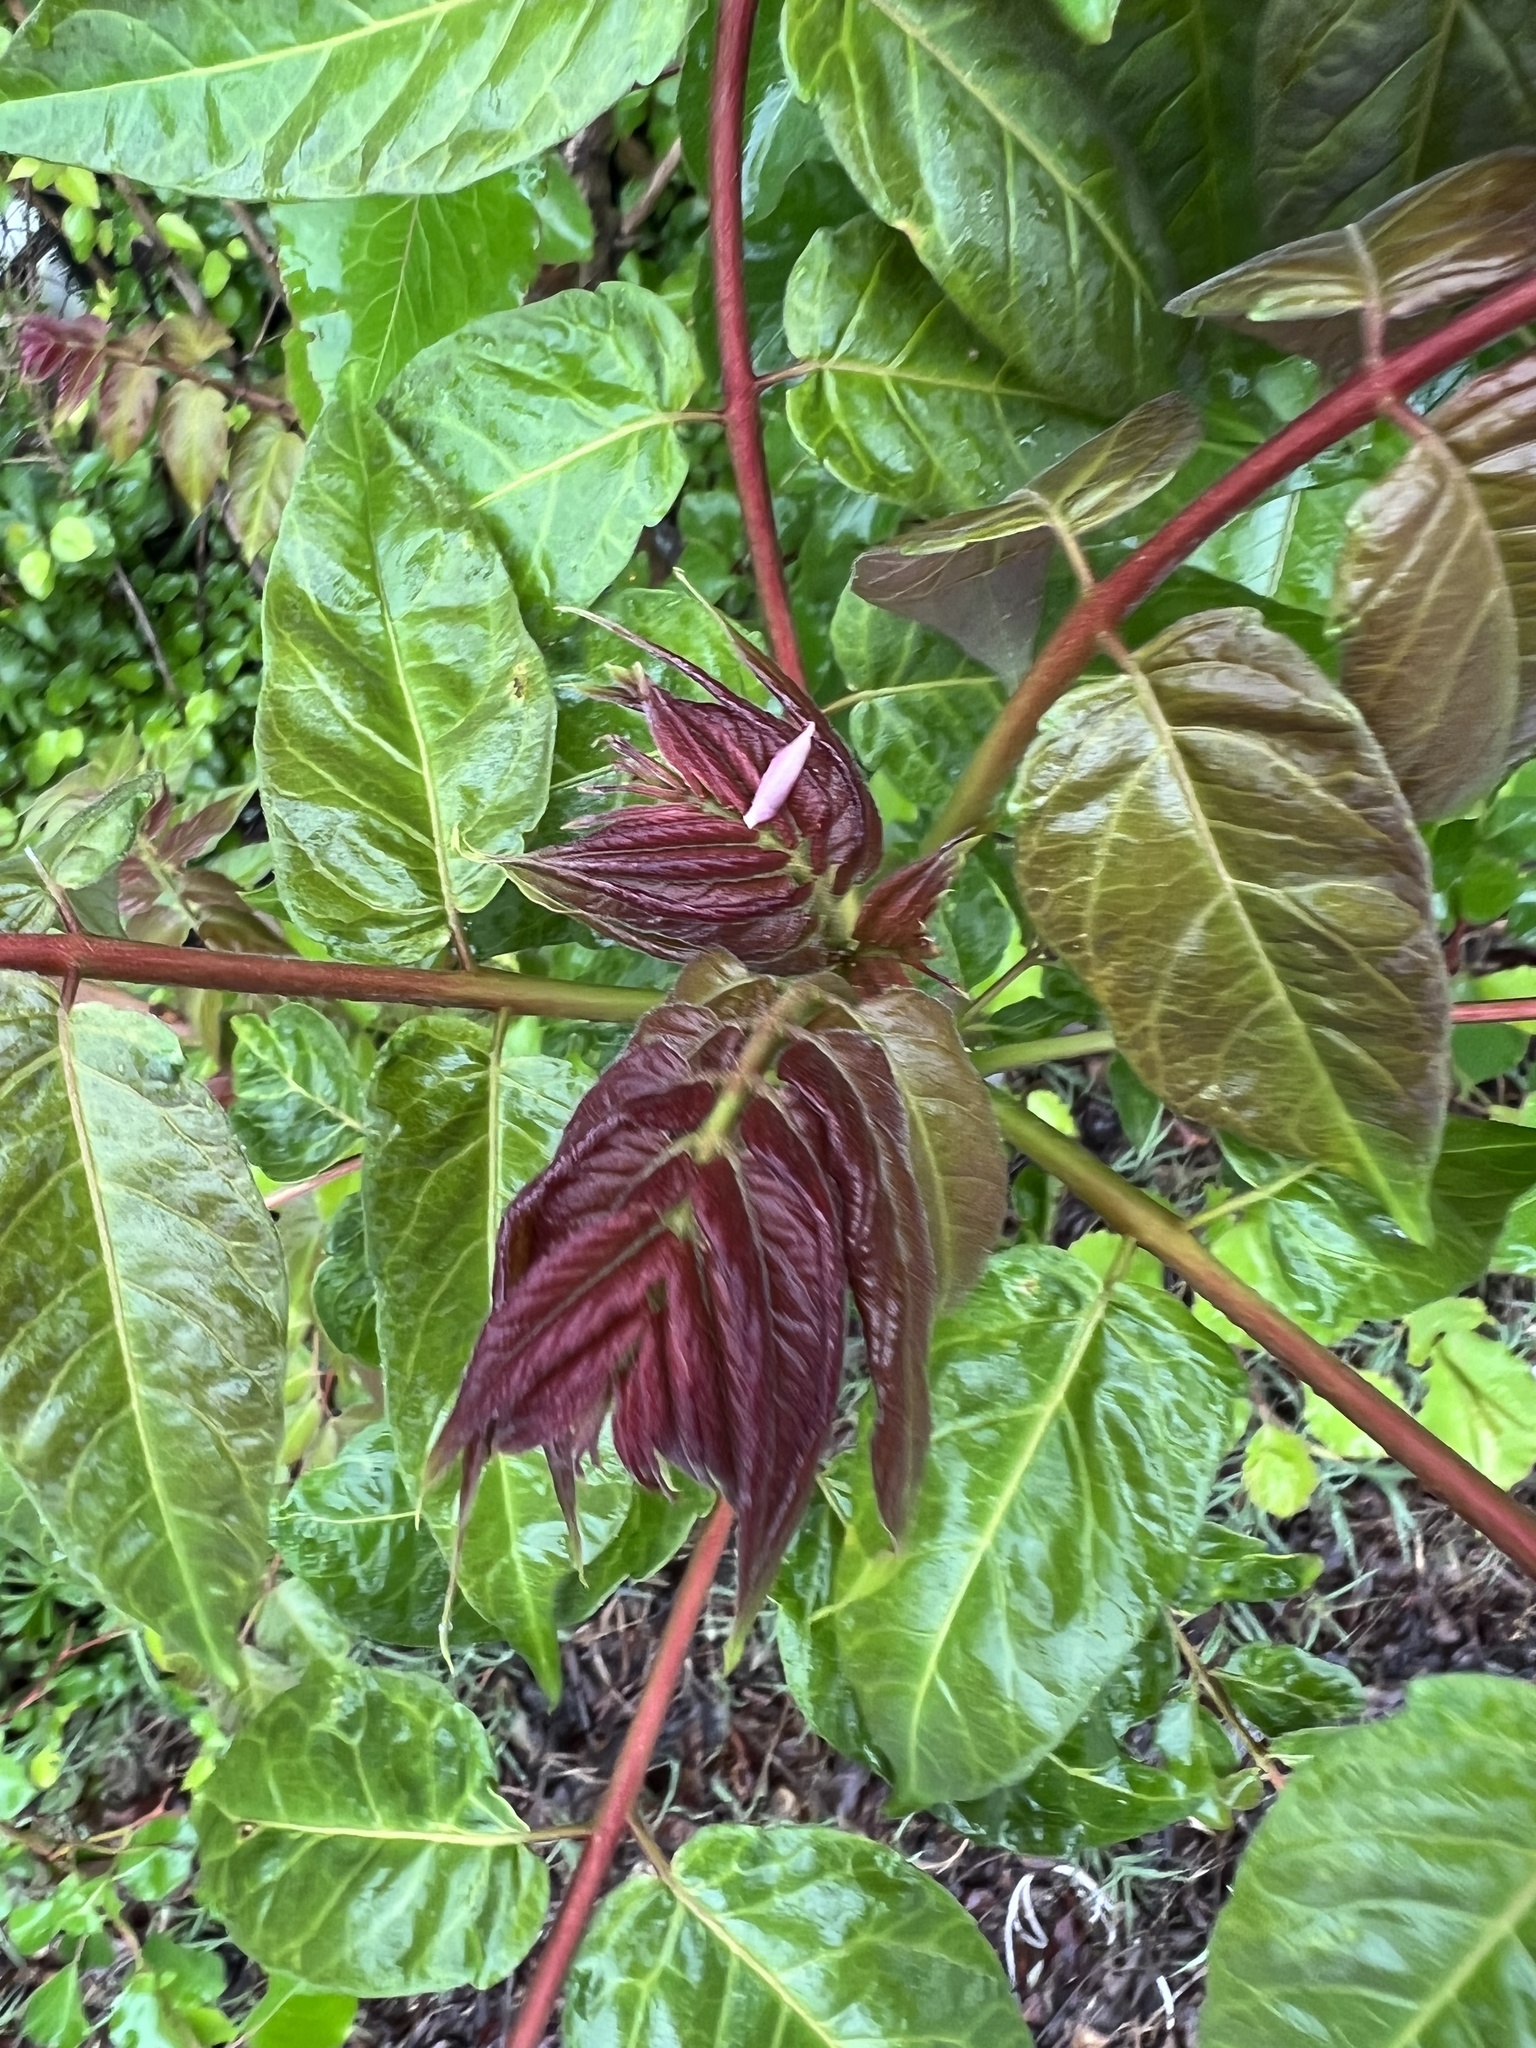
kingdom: Plantae
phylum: Tracheophyta
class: Magnoliopsida
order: Sapindales
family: Simaroubaceae
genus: Ailanthus
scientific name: Ailanthus altissima
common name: Tree-of-heaven
